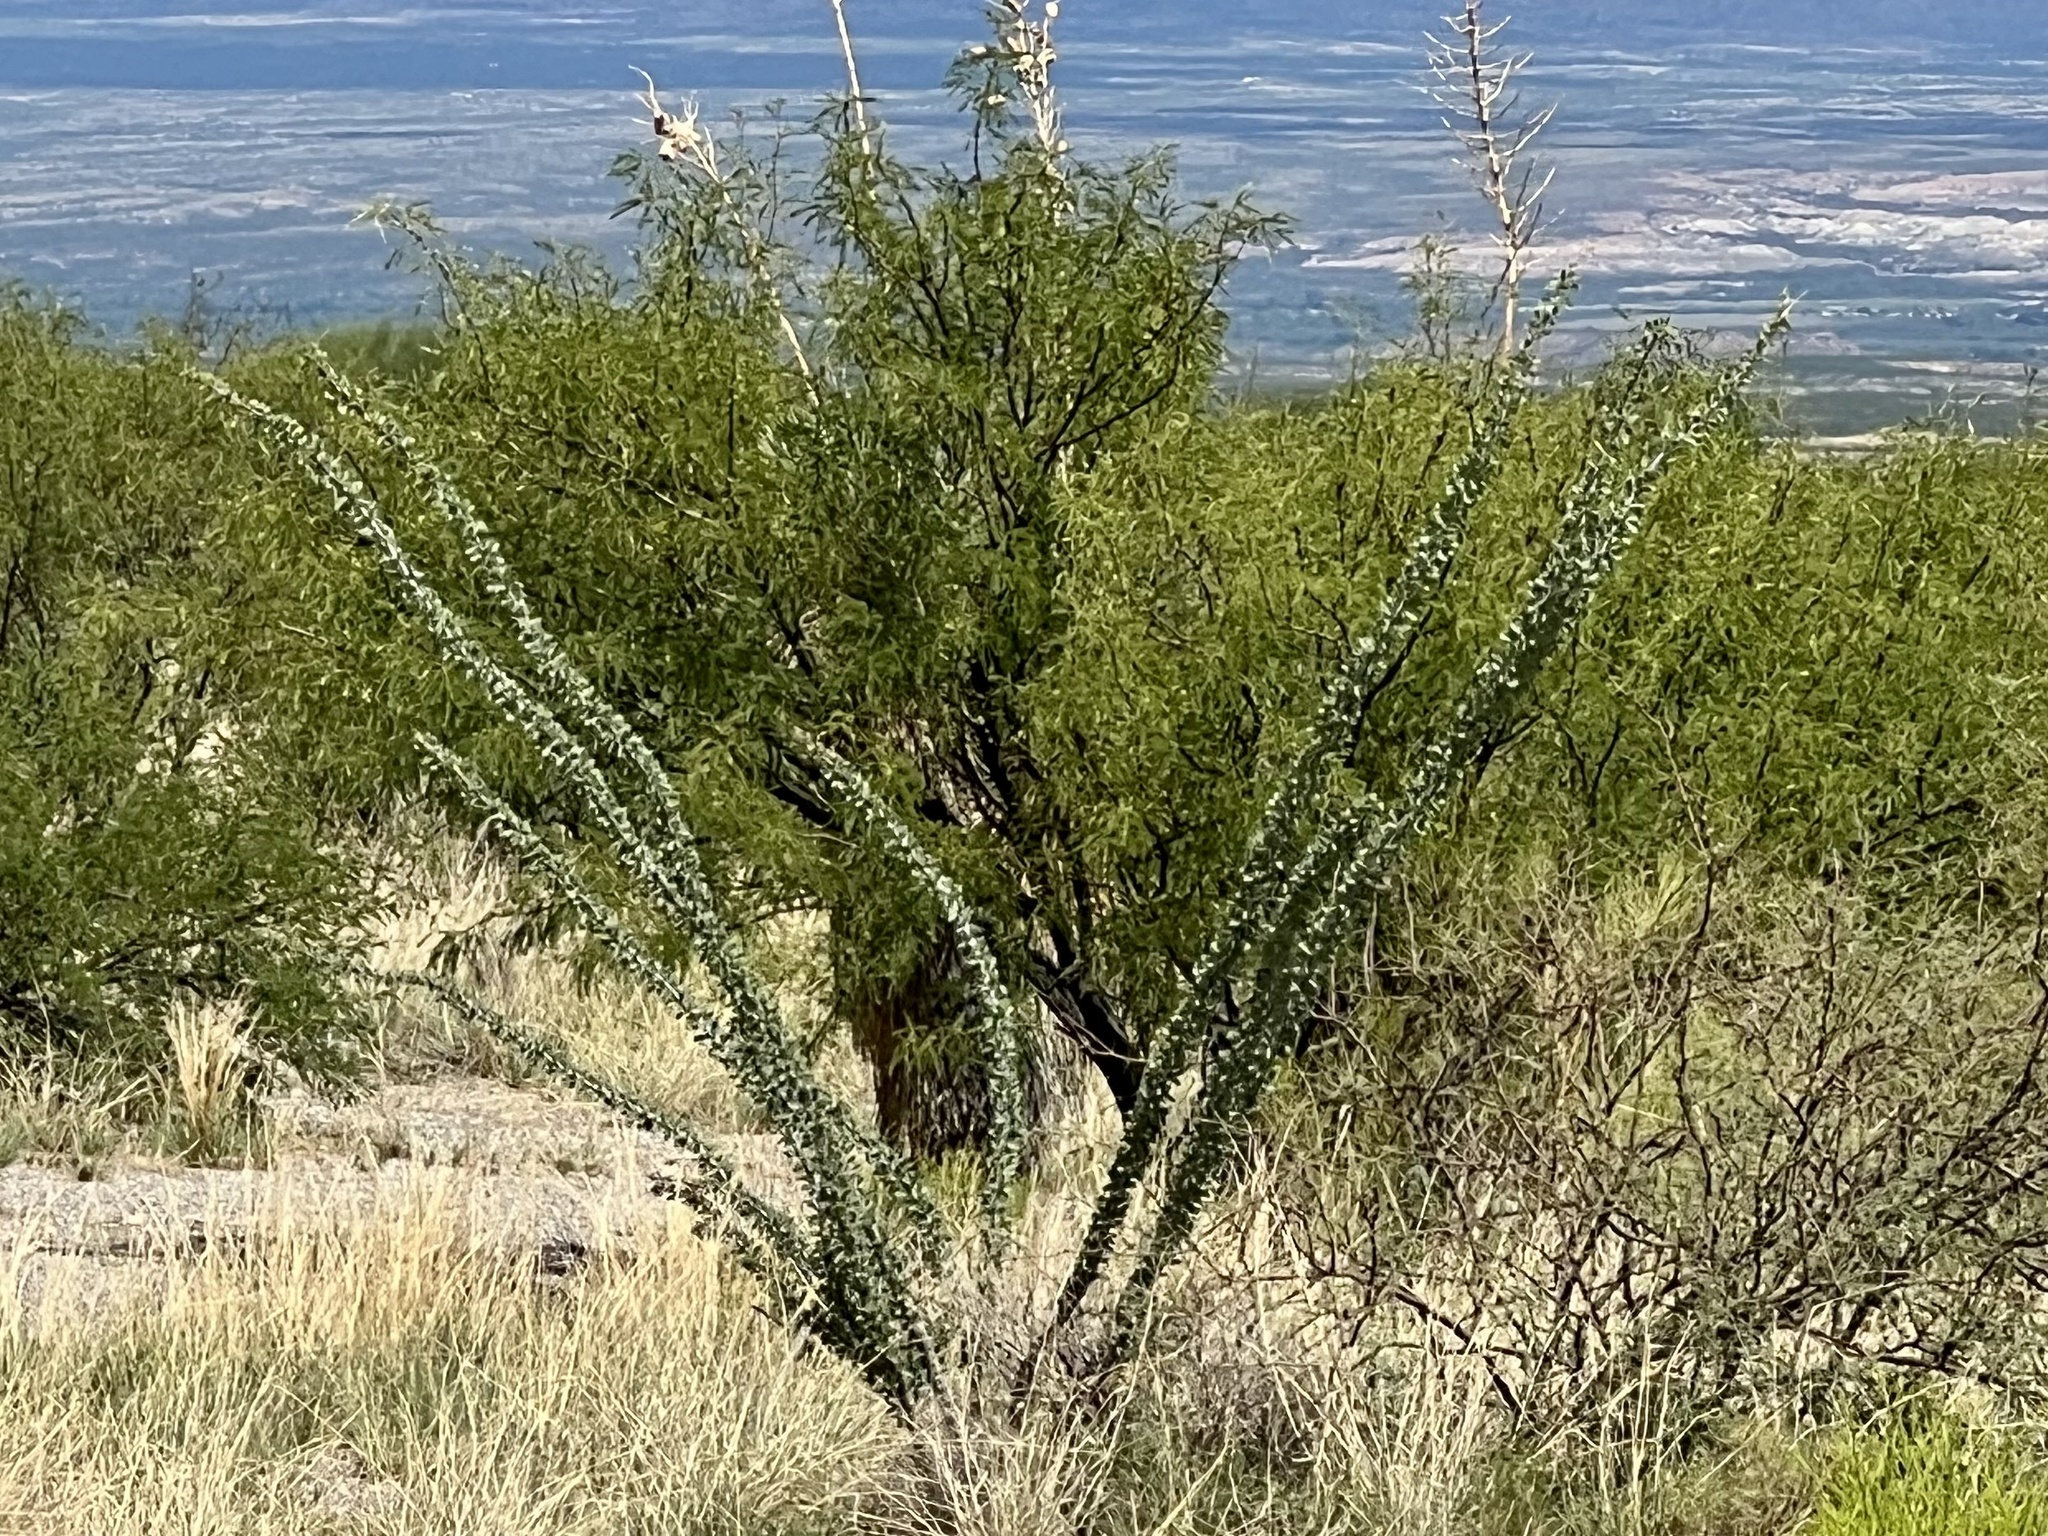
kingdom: Plantae
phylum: Tracheophyta
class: Magnoliopsida
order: Ericales
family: Fouquieriaceae
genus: Fouquieria
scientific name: Fouquieria splendens
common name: Vine-cactus
